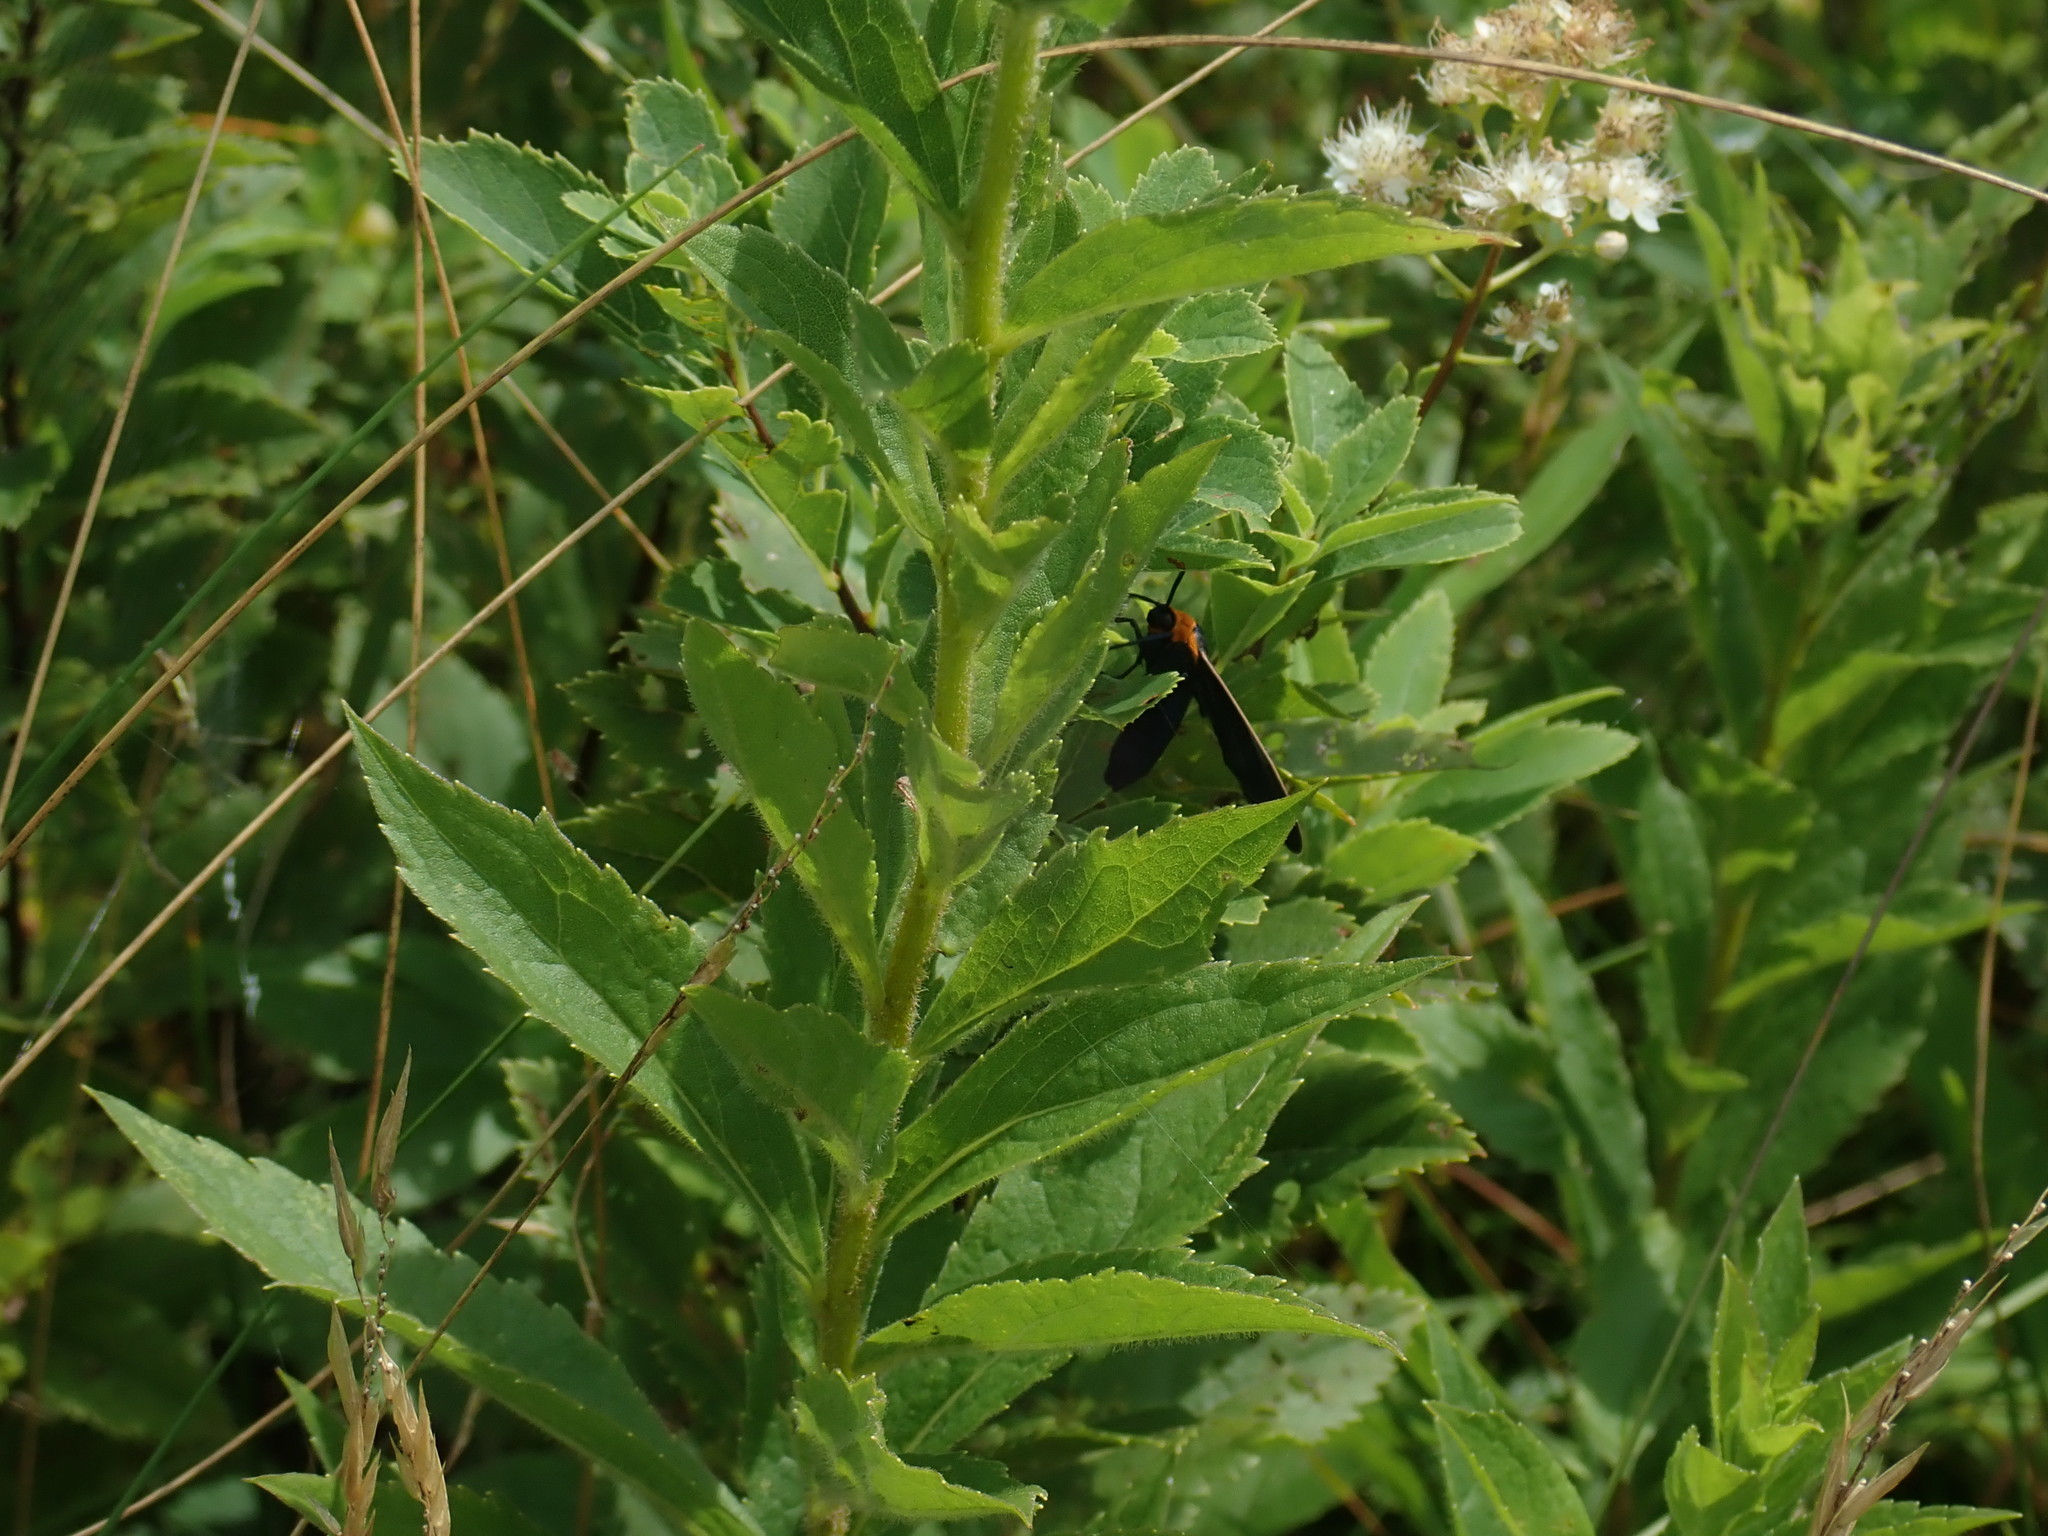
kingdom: Animalia
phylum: Arthropoda
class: Insecta
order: Lepidoptera
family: Erebidae
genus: Cisseps
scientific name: Cisseps fulvicollis
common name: Yellow-collared scape moth
